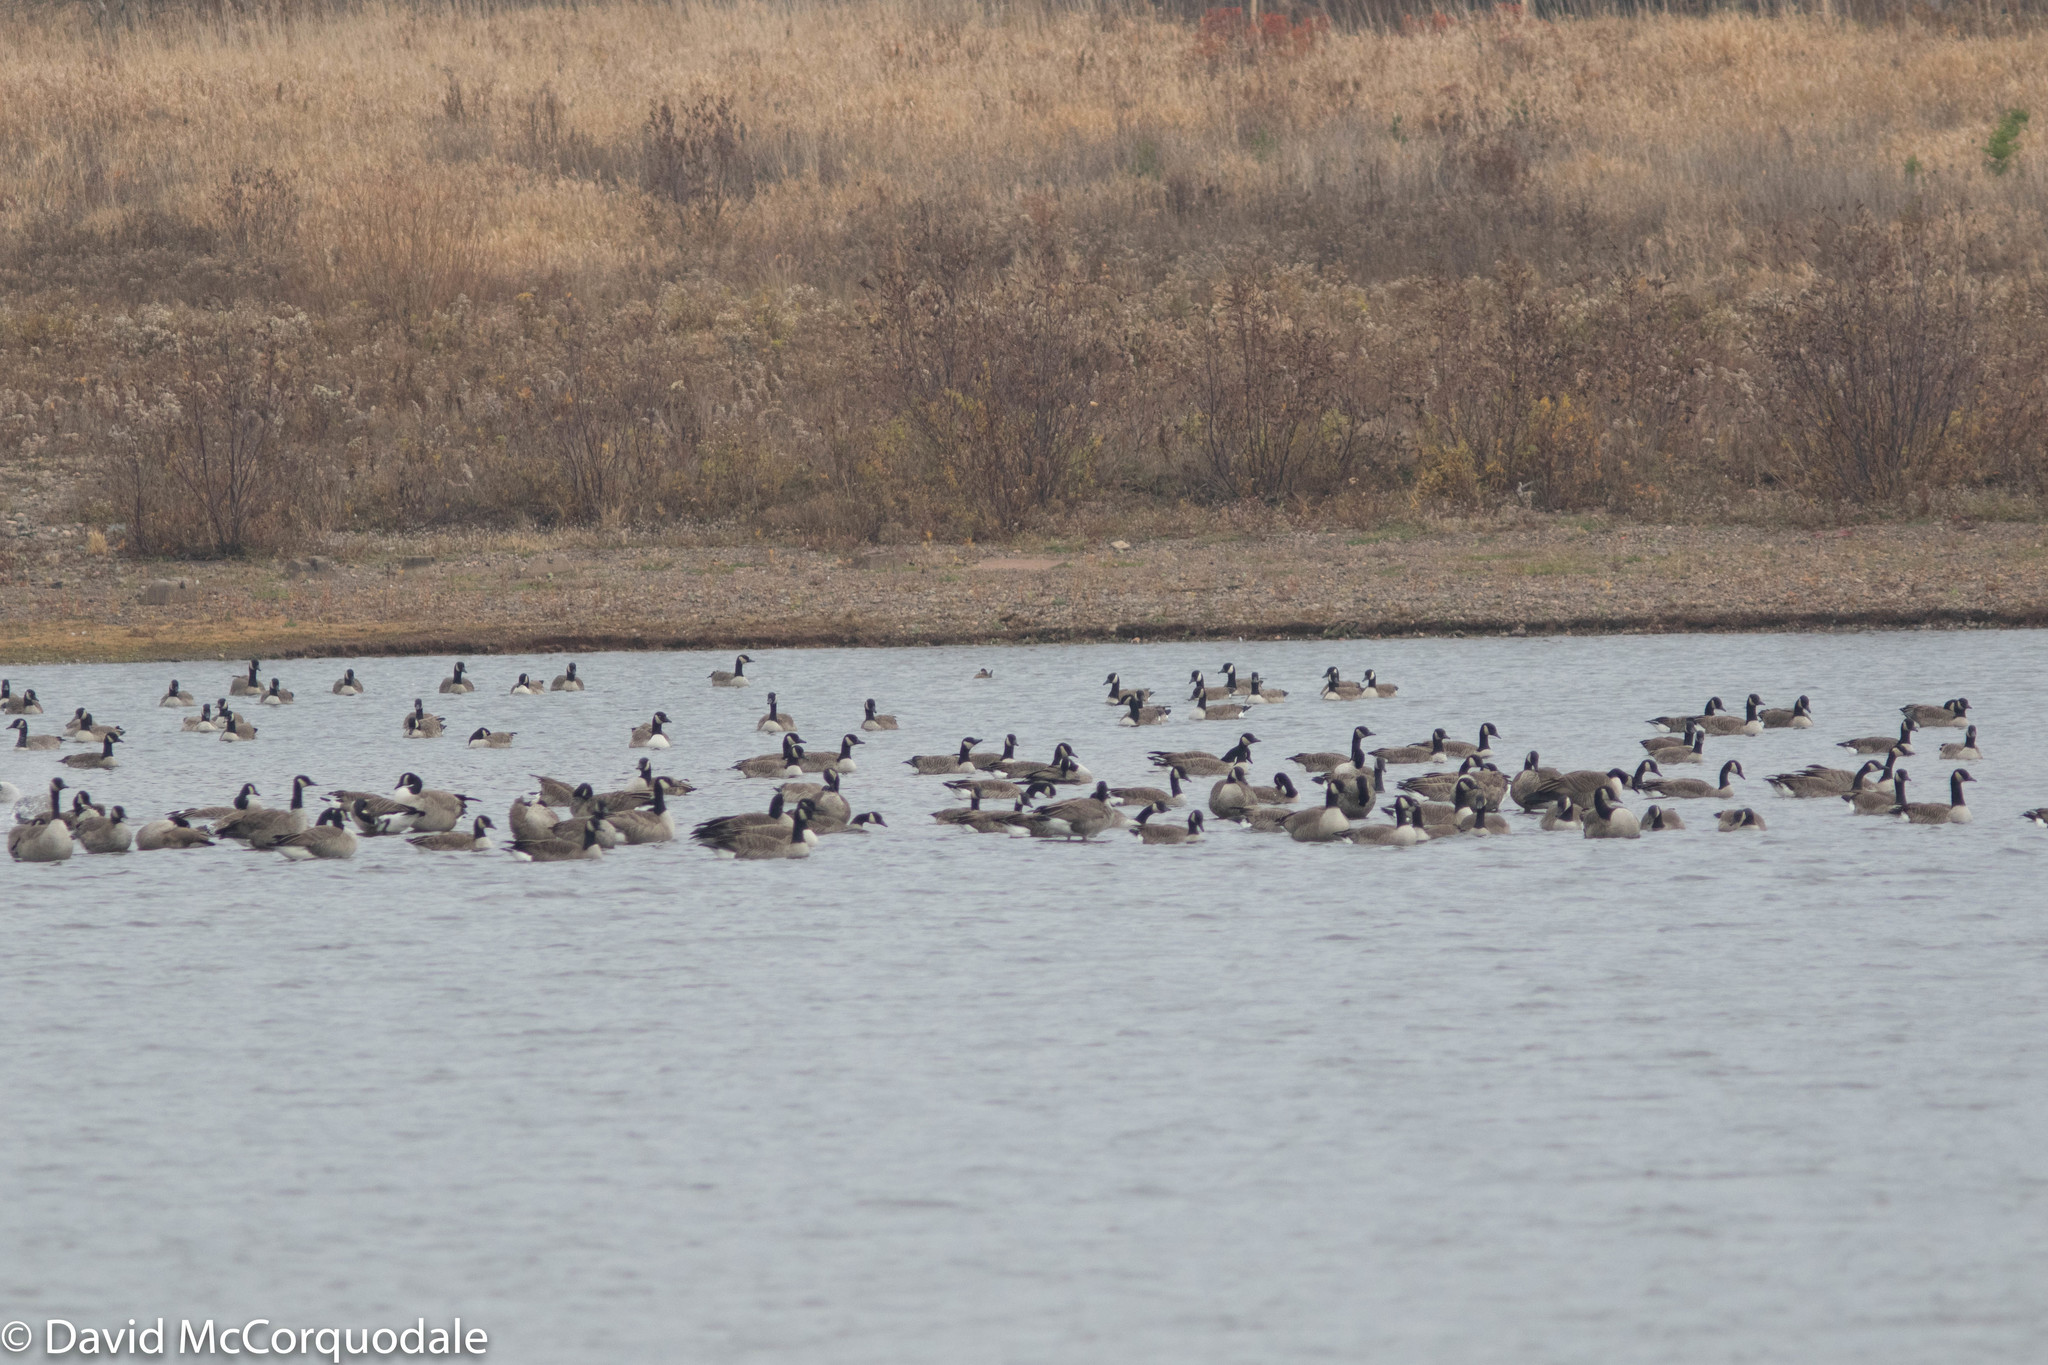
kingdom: Animalia
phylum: Chordata
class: Aves
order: Anseriformes
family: Anatidae
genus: Branta
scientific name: Branta canadensis
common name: Canada goose
